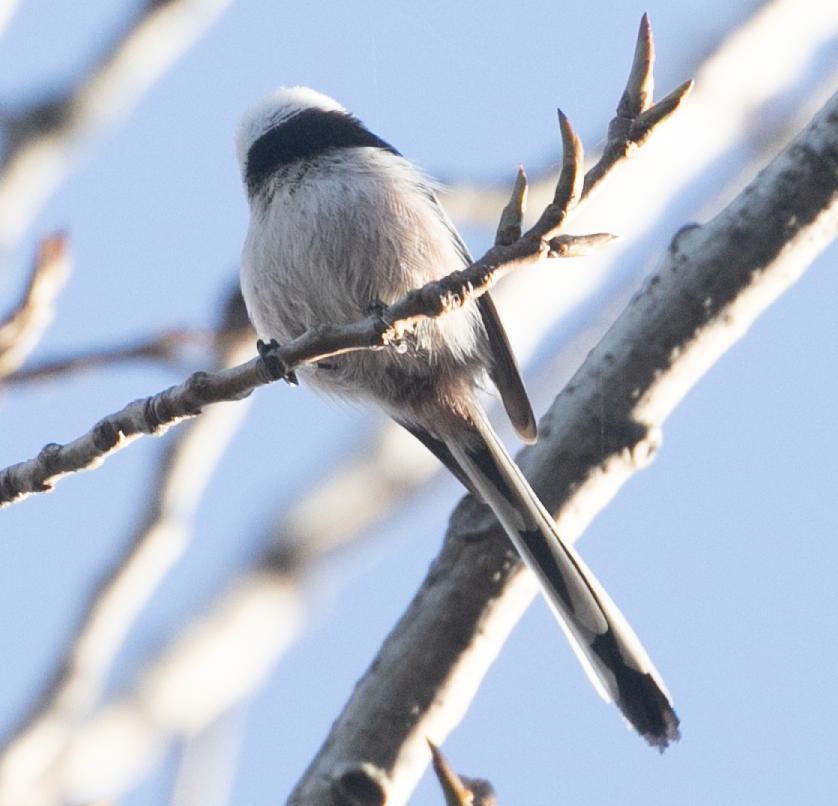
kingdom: Animalia
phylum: Chordata
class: Aves
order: Passeriformes
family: Aegithalidae
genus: Aegithalos
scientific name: Aegithalos caudatus
